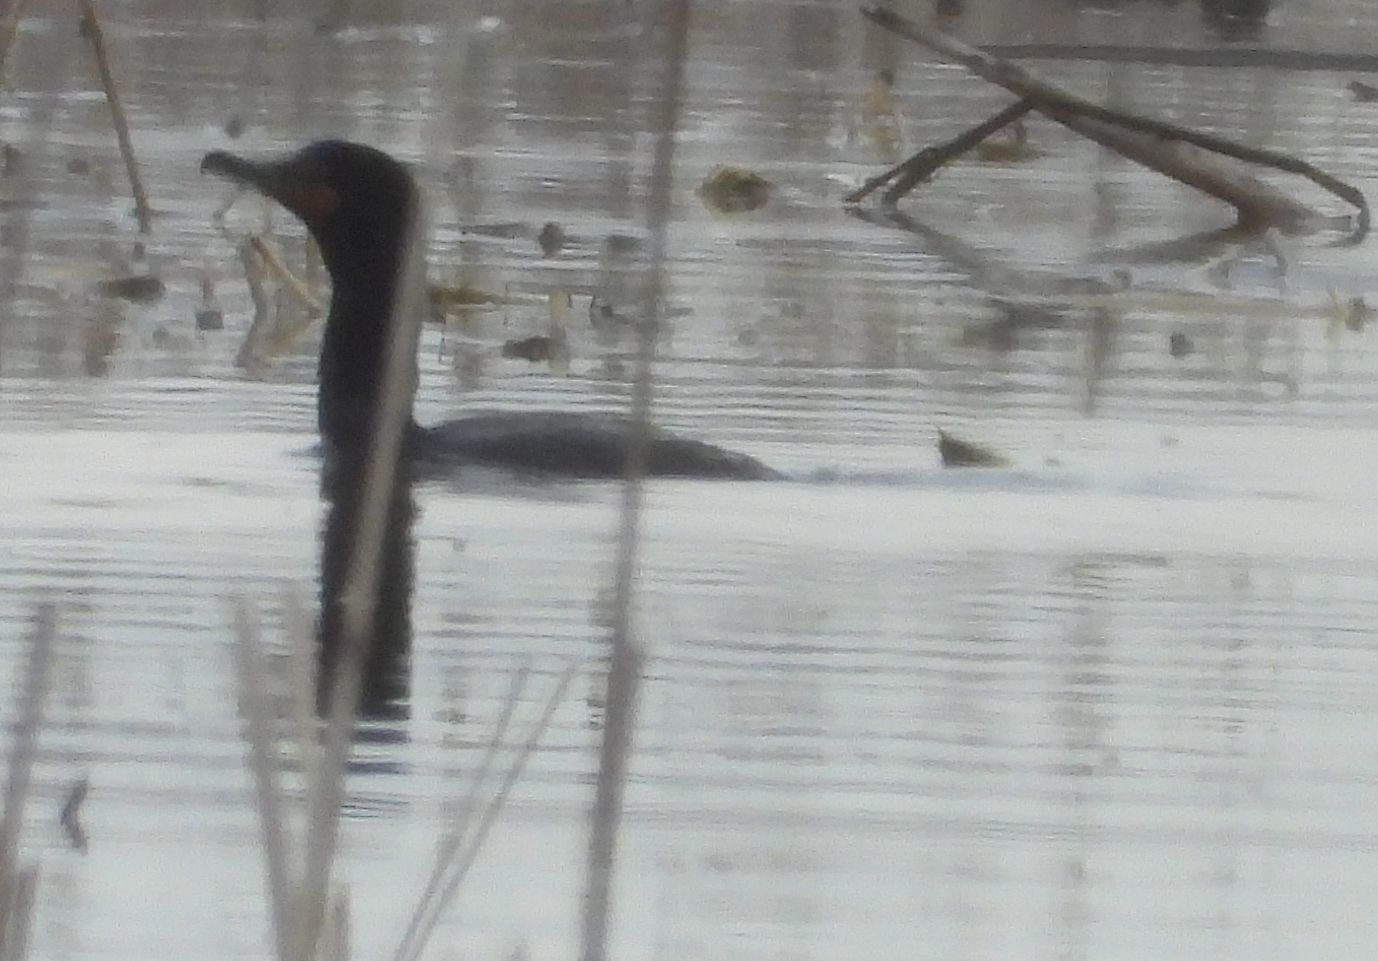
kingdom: Animalia
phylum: Chordata
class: Aves
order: Suliformes
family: Phalacrocoracidae
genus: Phalacrocorax
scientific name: Phalacrocorax auritus
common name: Double-crested cormorant
